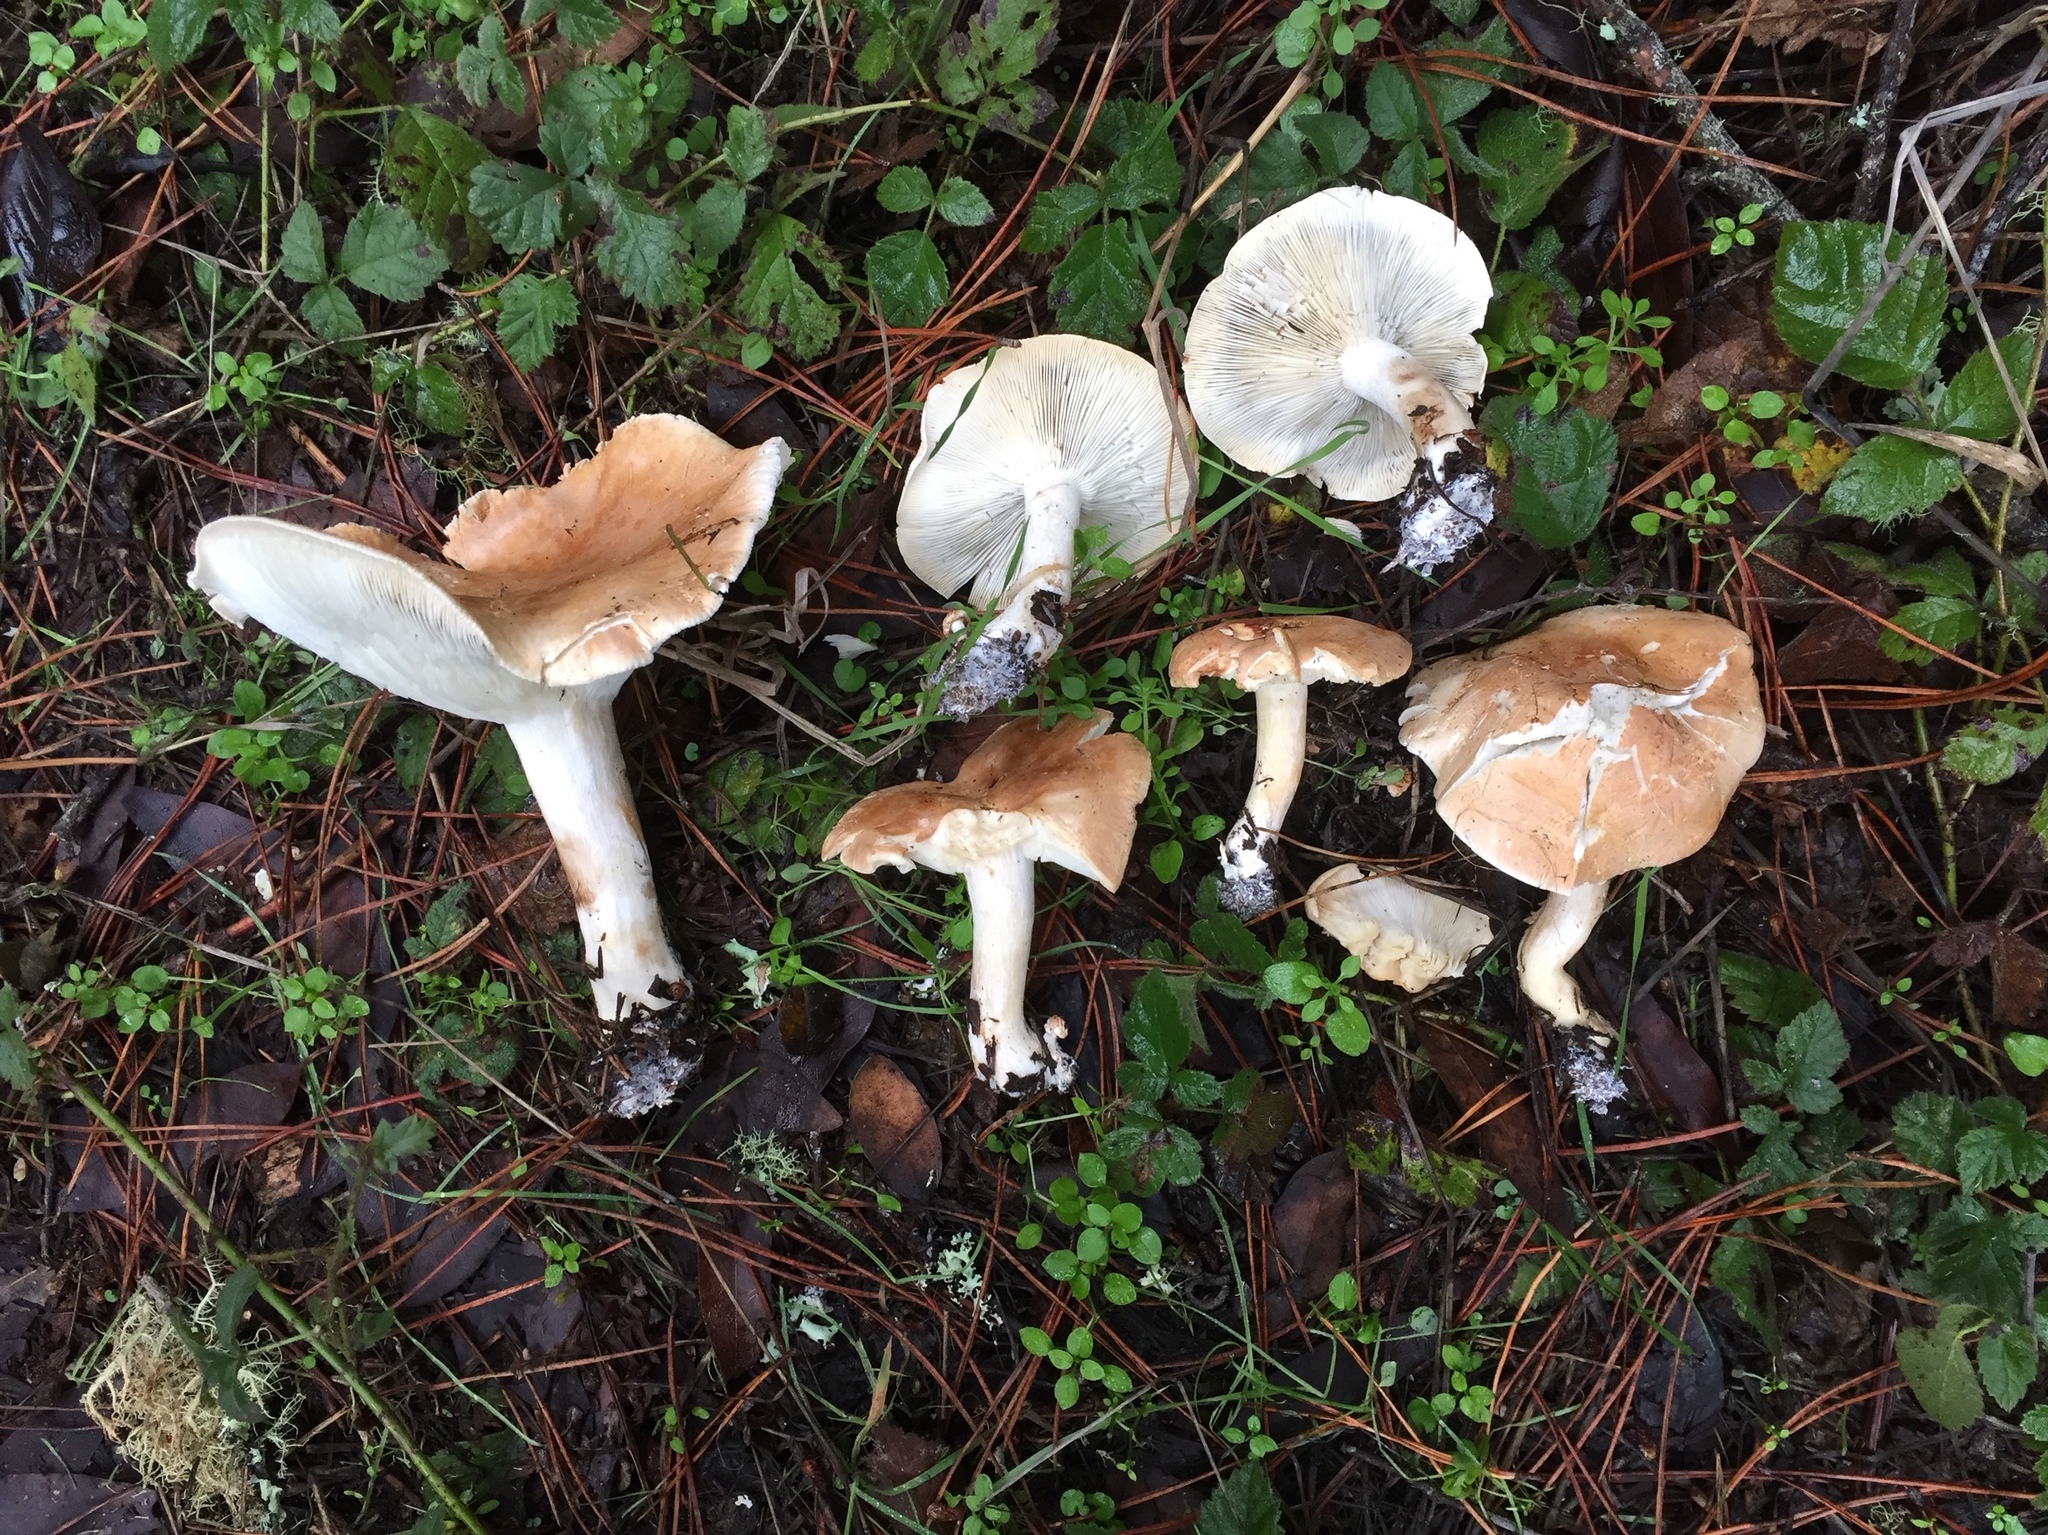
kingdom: Fungi
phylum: Basidiomycota
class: Agaricomycetes
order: Agaricales
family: Tricholomataceae
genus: Leucopaxillus
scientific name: Leucopaxillus gentianeus
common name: Bitter funnel
